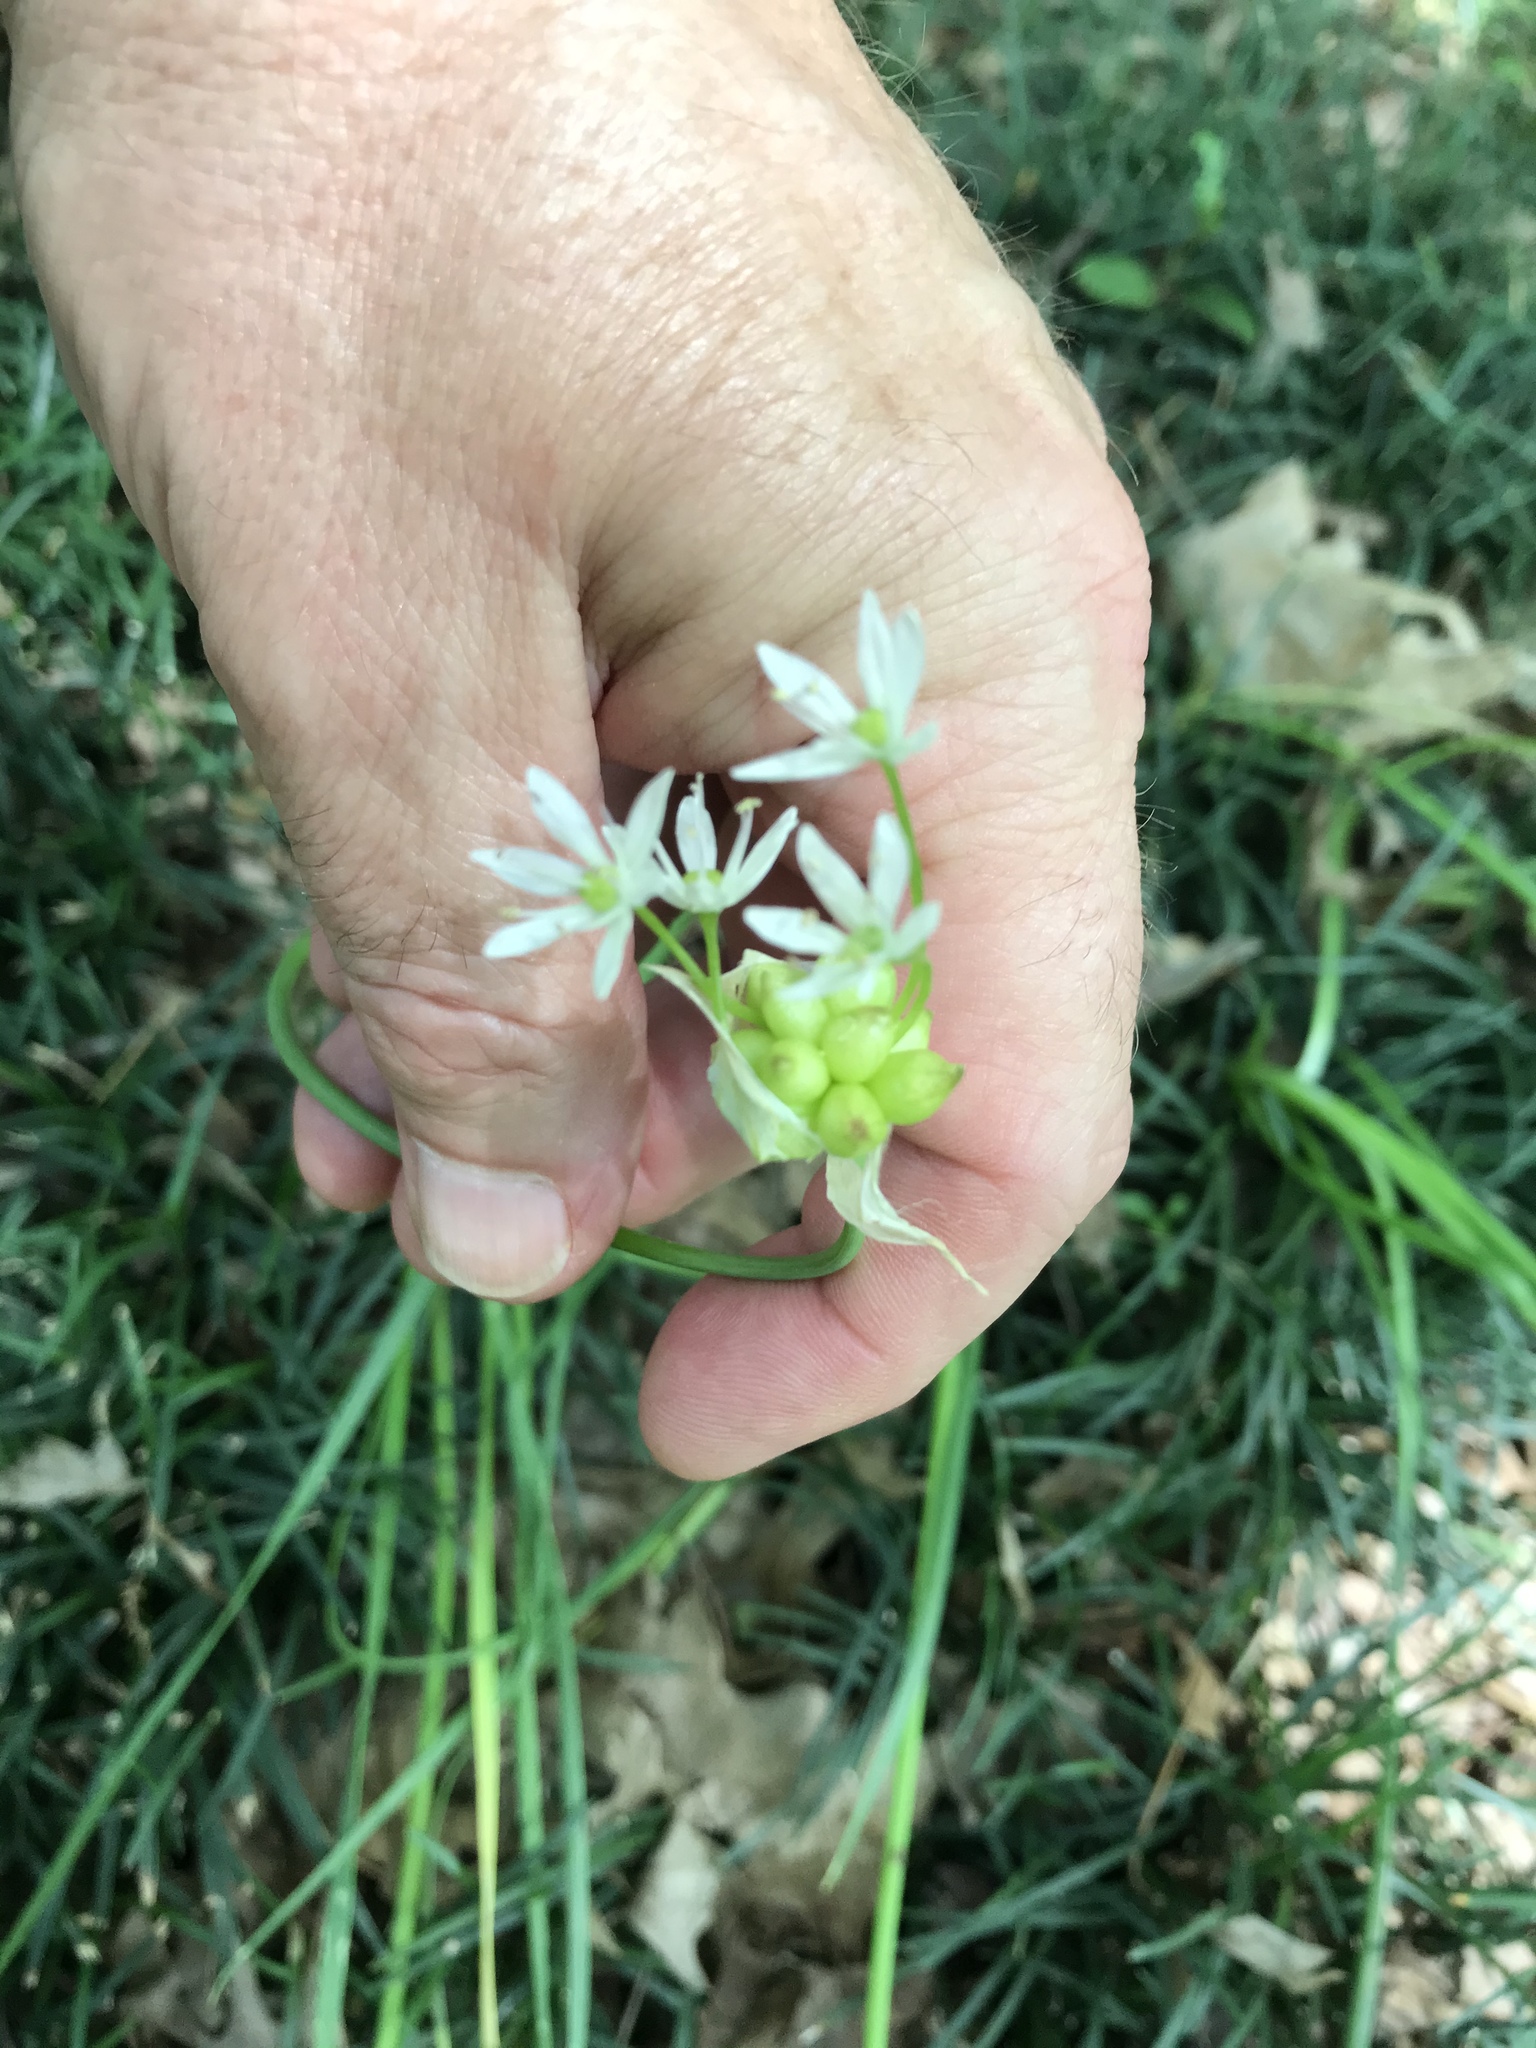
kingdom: Plantae
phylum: Tracheophyta
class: Liliopsida
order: Asparagales
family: Amaryllidaceae
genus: Allium
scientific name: Allium canadense
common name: Meadow garlic
